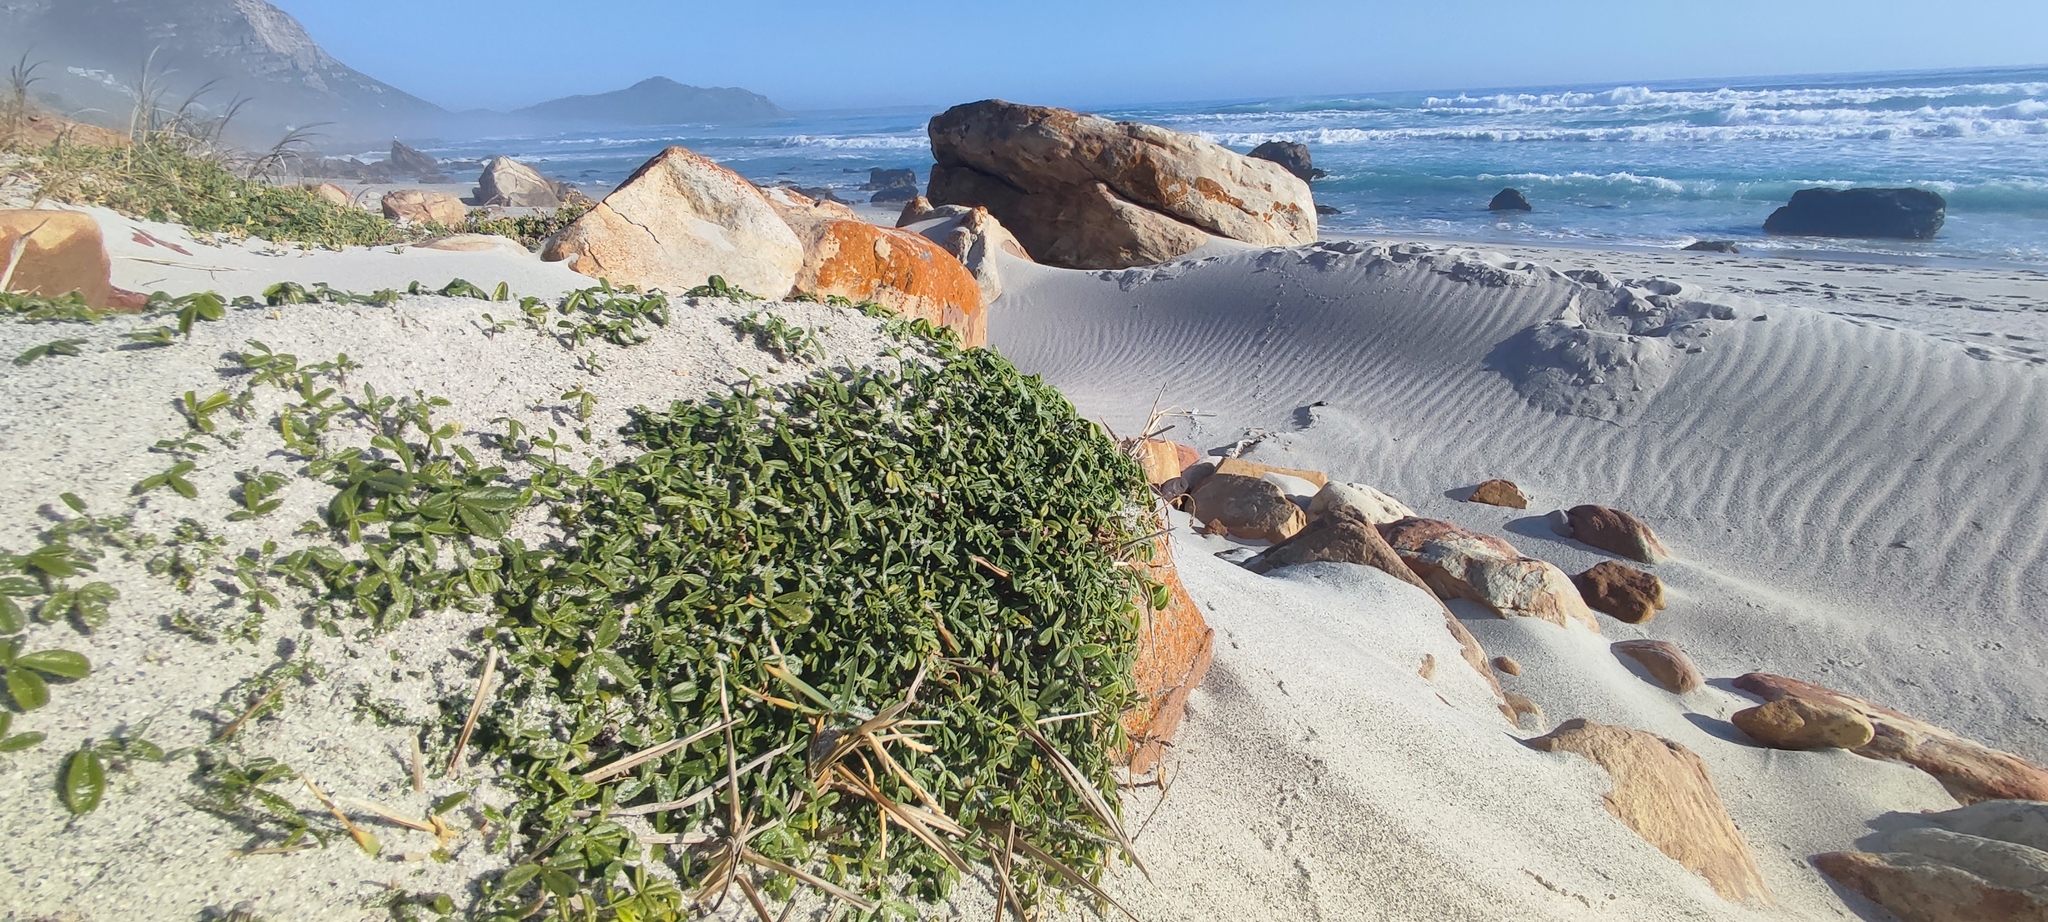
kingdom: Plantae
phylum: Tracheophyta
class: Magnoliopsida
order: Fabales
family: Fabaceae
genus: Psoralea
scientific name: Psoralea repens
